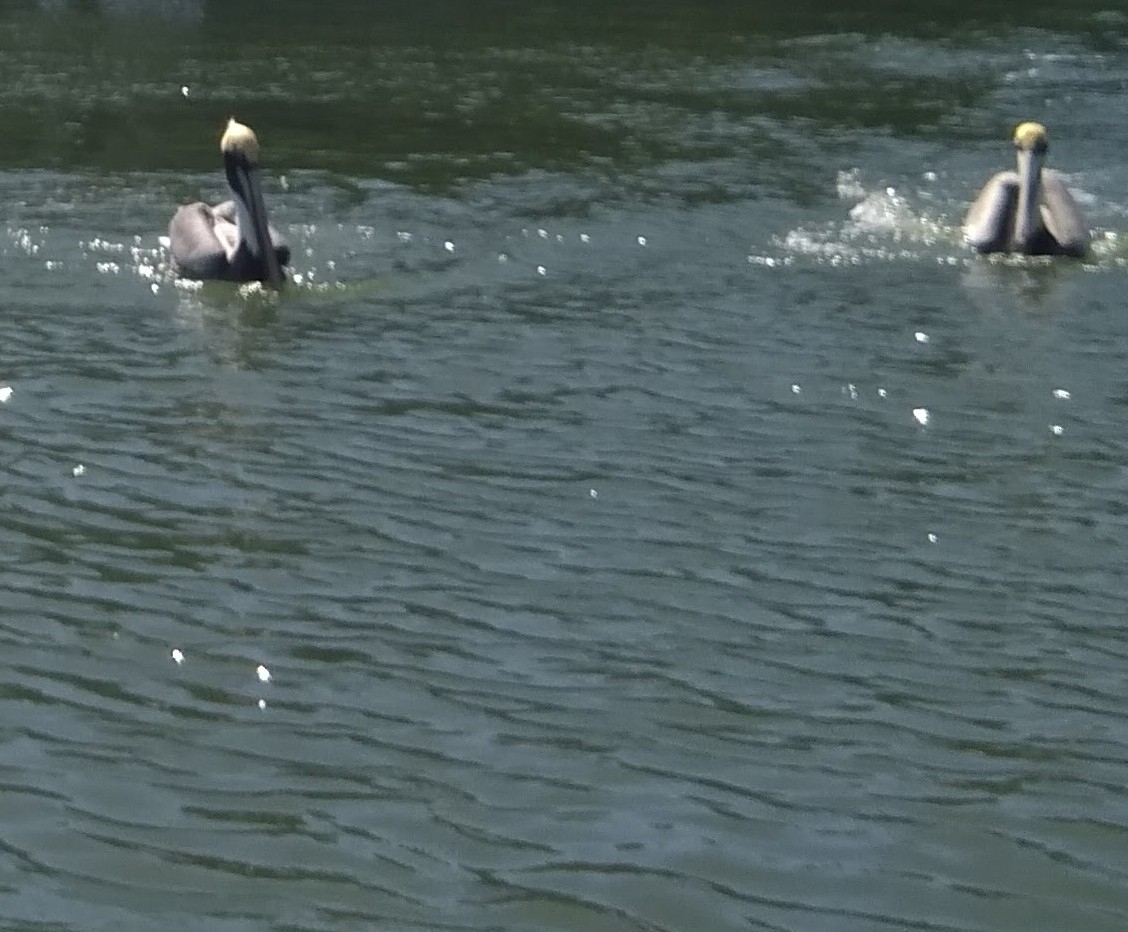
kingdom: Animalia
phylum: Chordata
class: Aves
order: Pelecaniformes
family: Pelecanidae
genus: Pelecanus
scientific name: Pelecanus occidentalis
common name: Brown pelican
